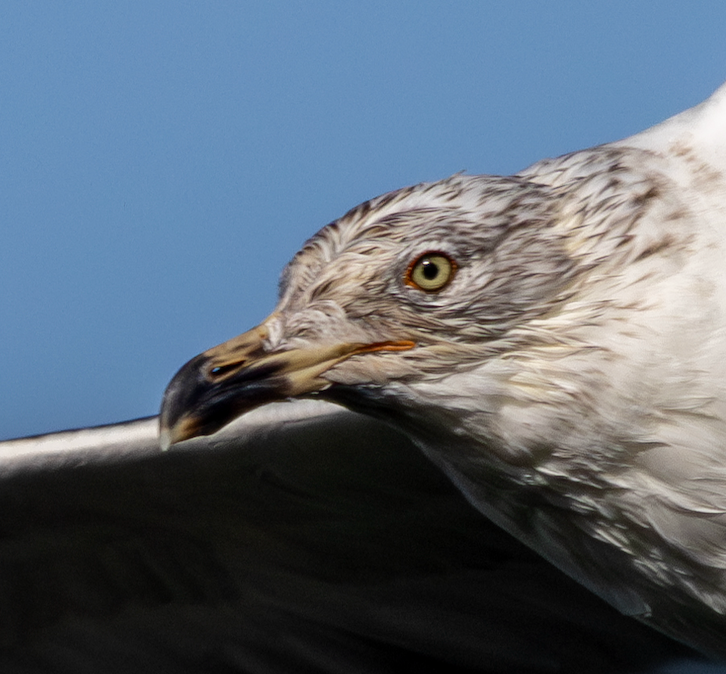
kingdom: Animalia
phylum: Chordata
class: Aves
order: Charadriiformes
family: Laridae
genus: Larus
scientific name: Larus fuscus
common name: Lesser black-backed gull
